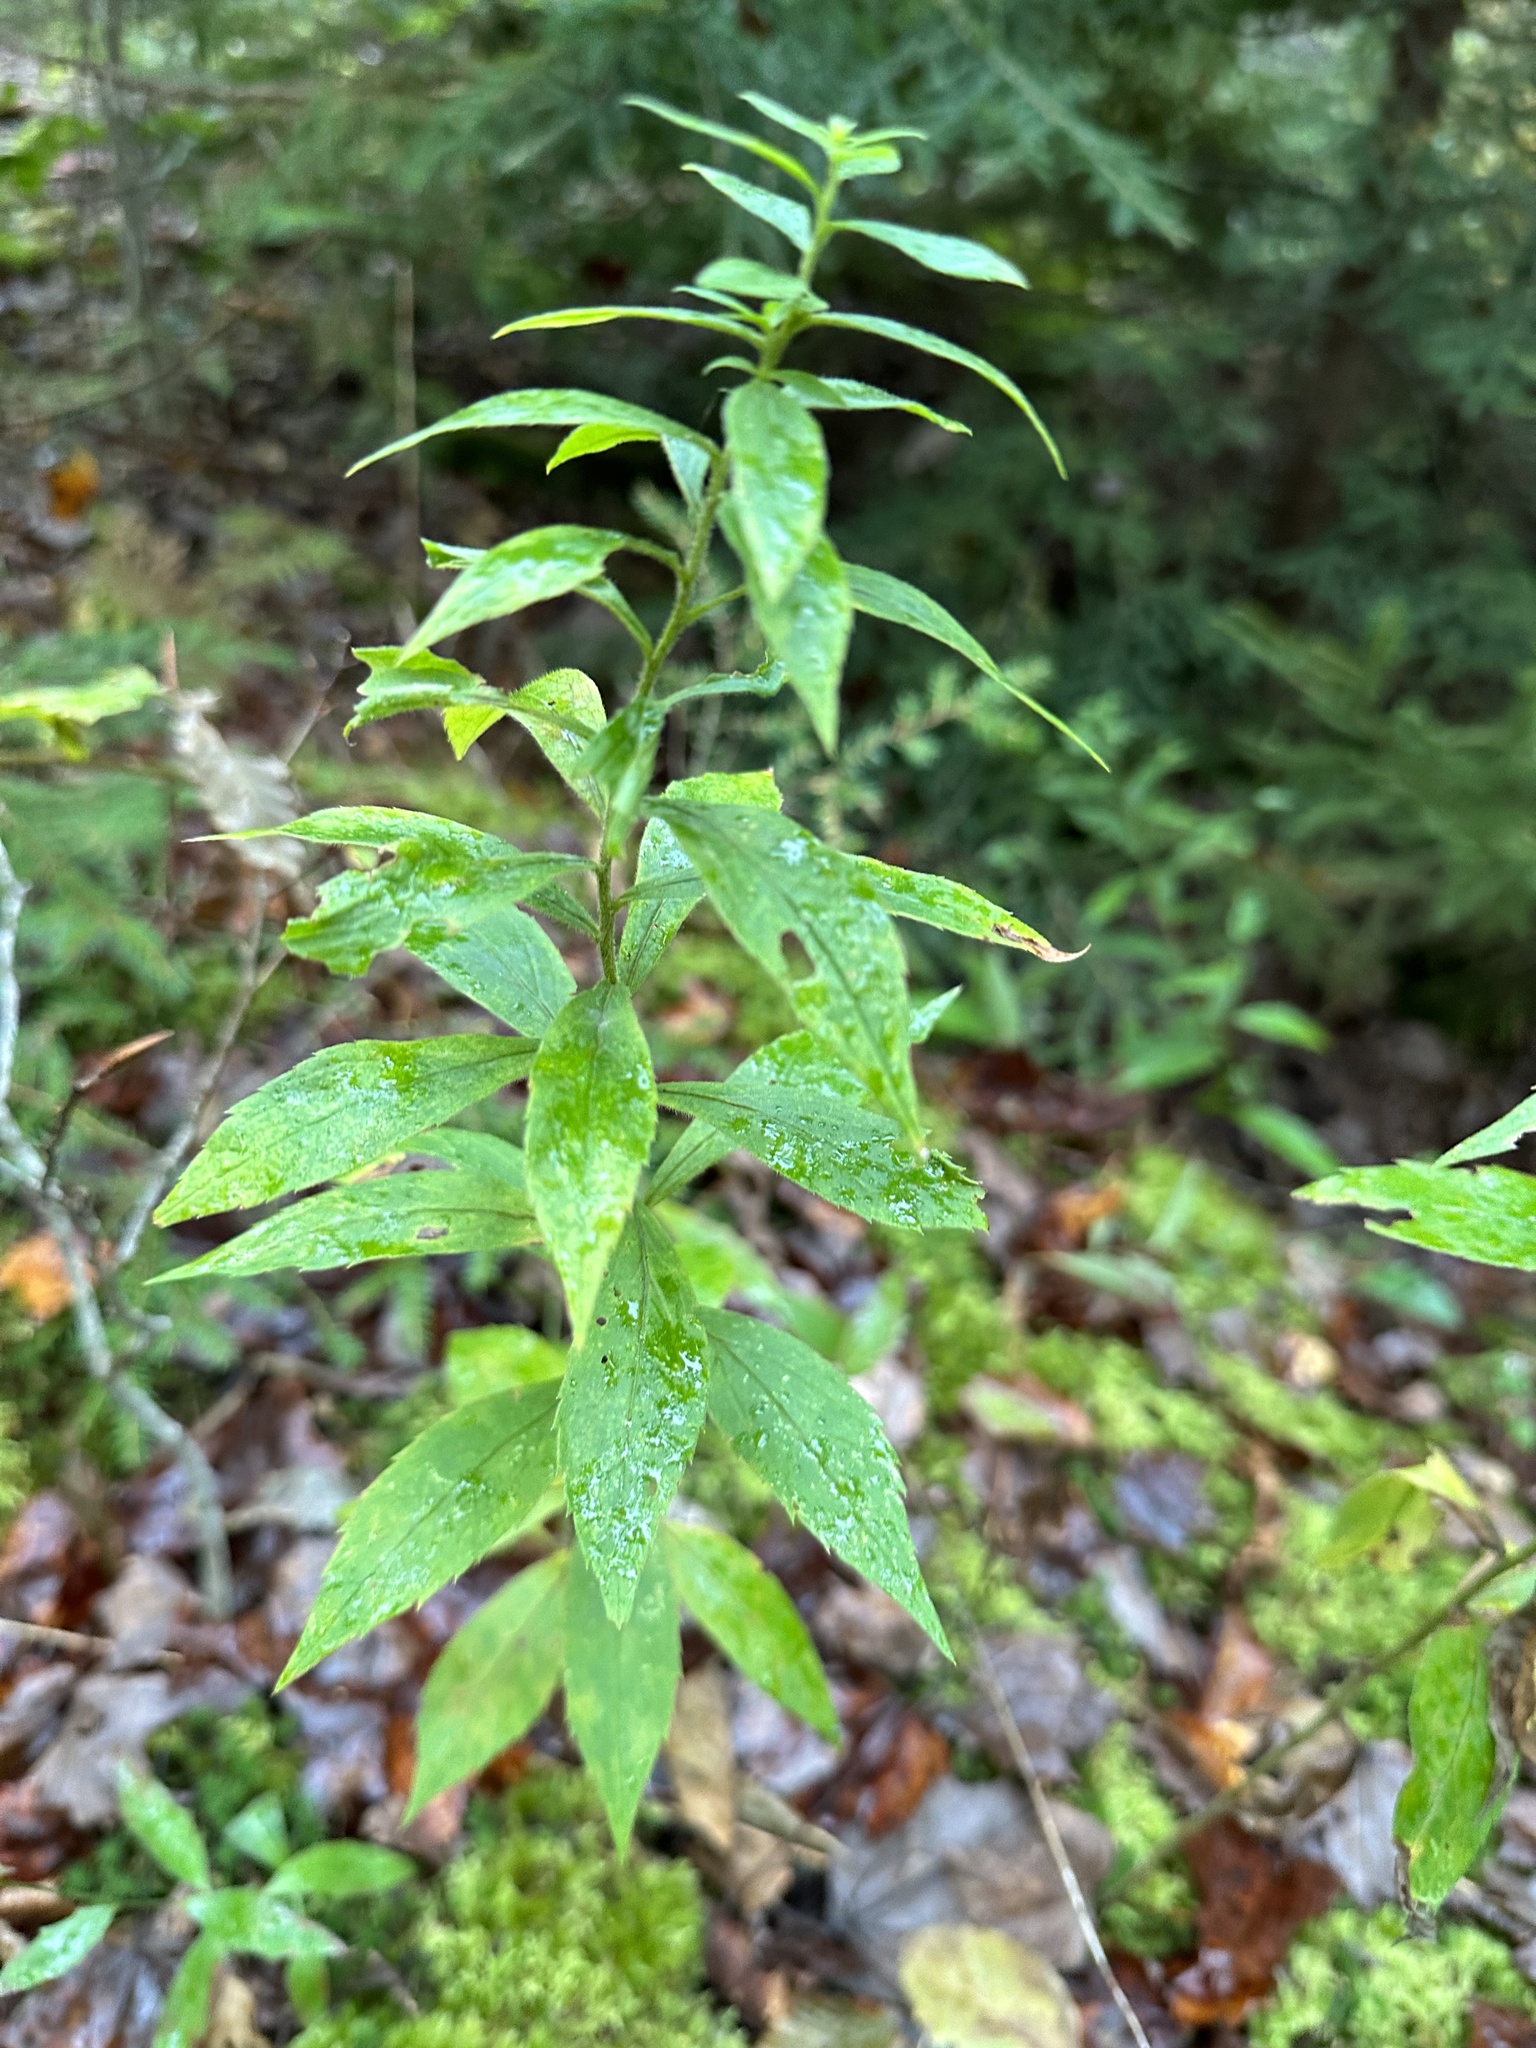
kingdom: Plantae
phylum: Tracheophyta
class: Magnoliopsida
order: Asterales
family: Asteraceae
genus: Solidago
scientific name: Solidago rugosa
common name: Rough-stemmed goldenrod
